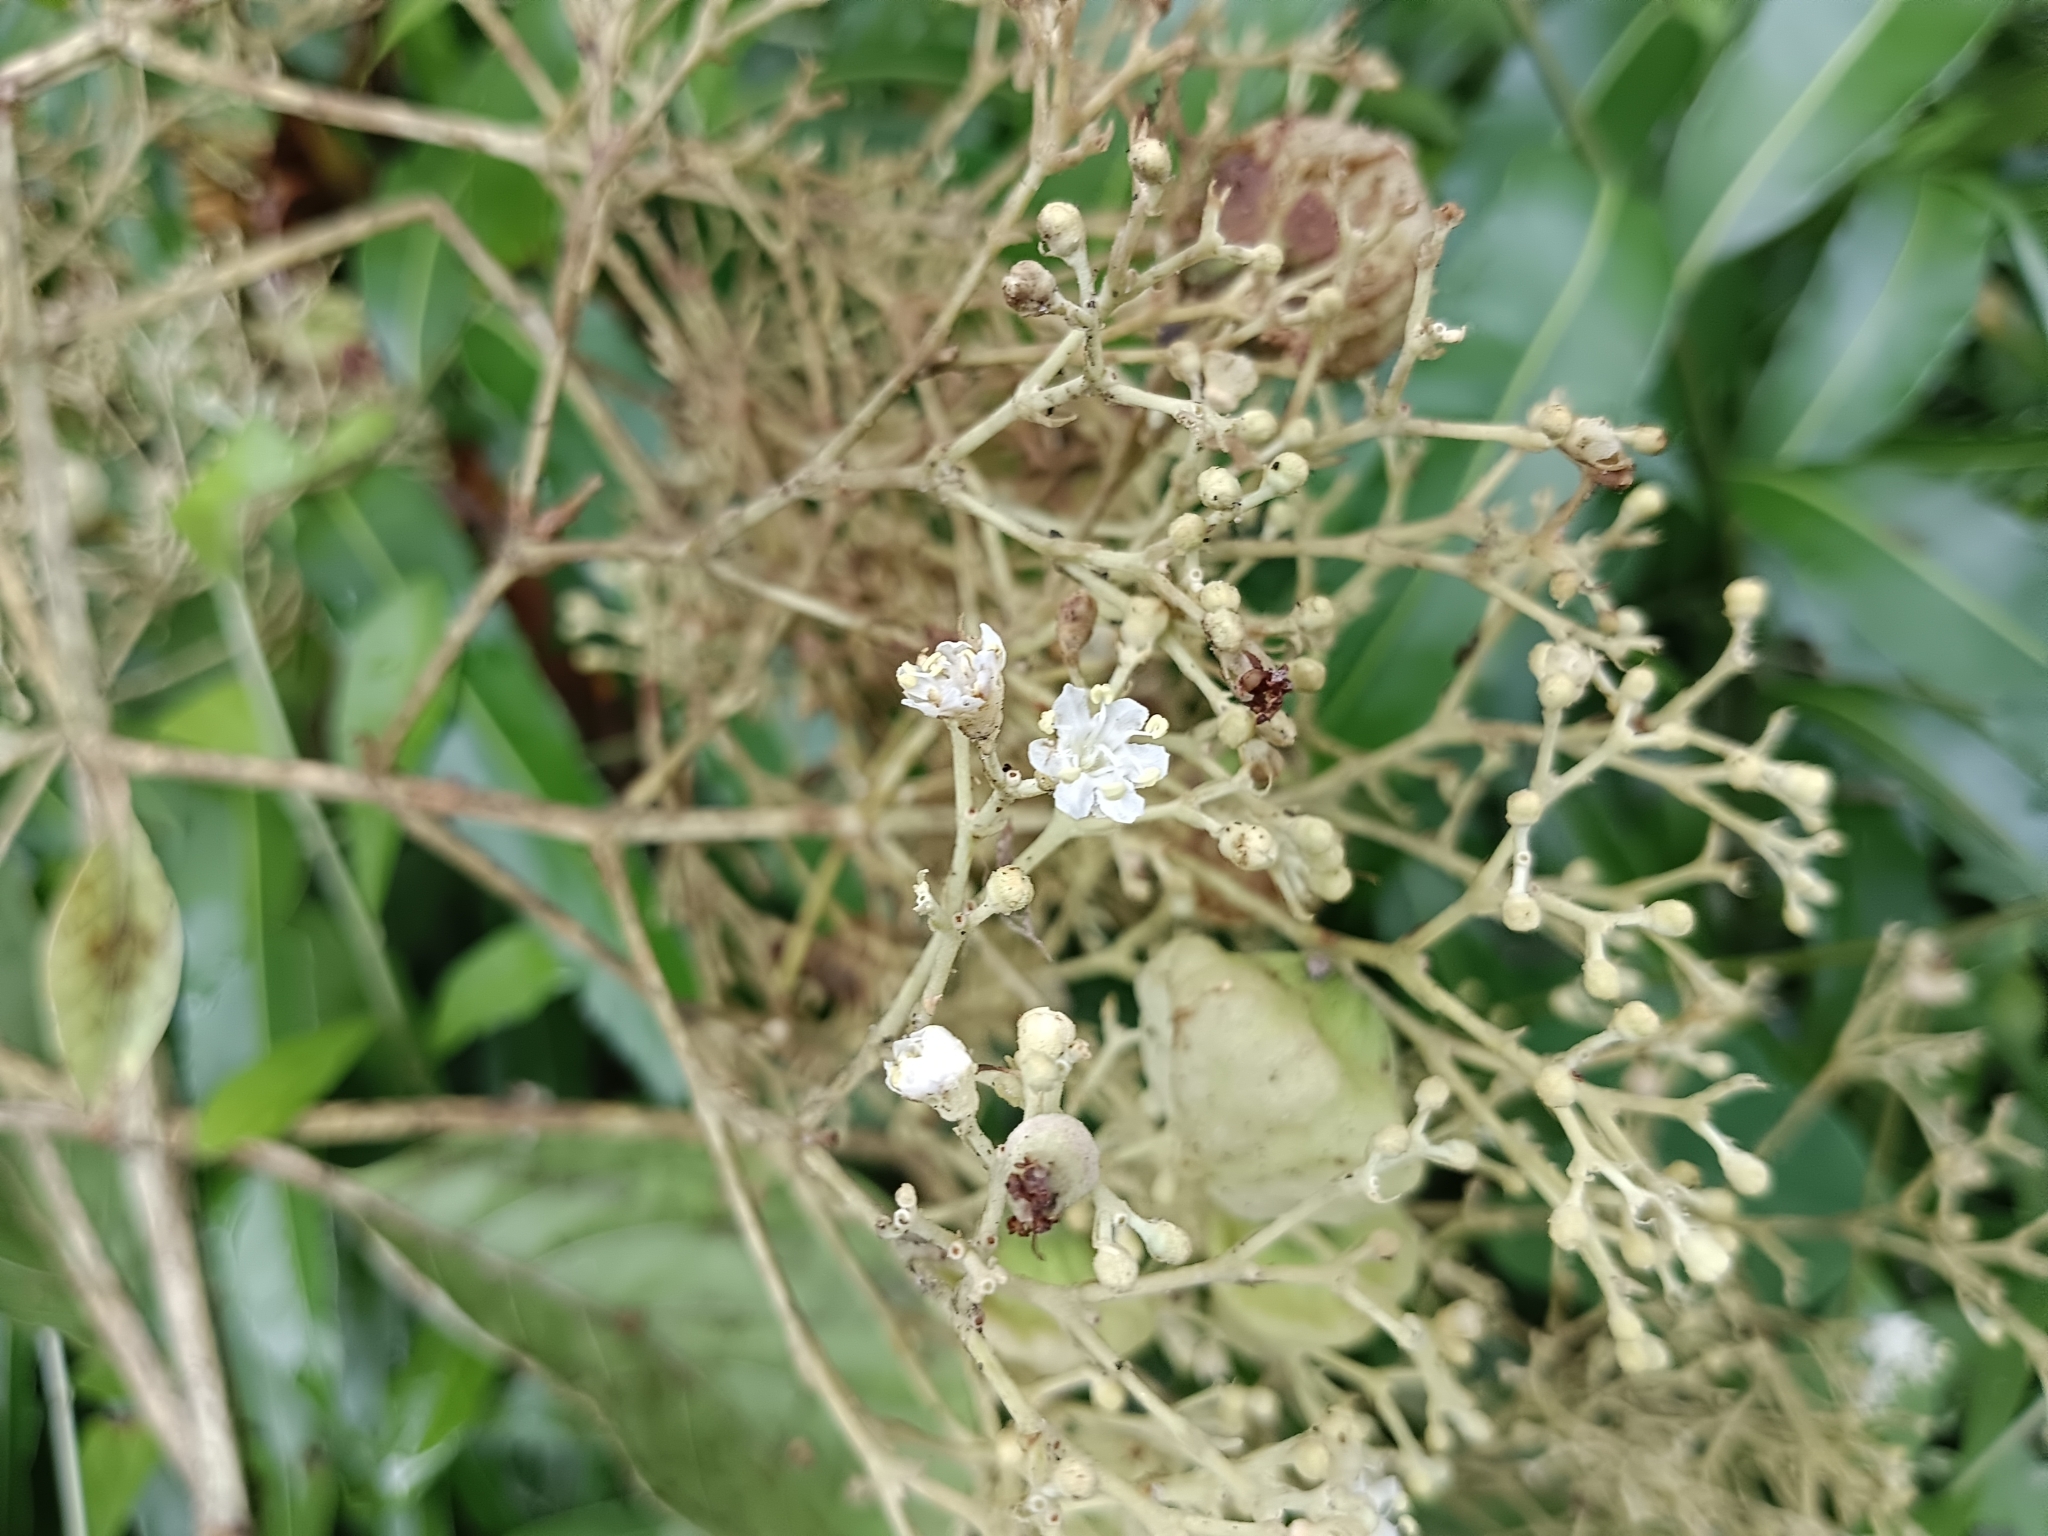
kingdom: Plantae
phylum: Tracheophyta
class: Magnoliopsida
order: Lamiales
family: Lamiaceae
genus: Tectona
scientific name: Tectona grandis
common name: Teak
